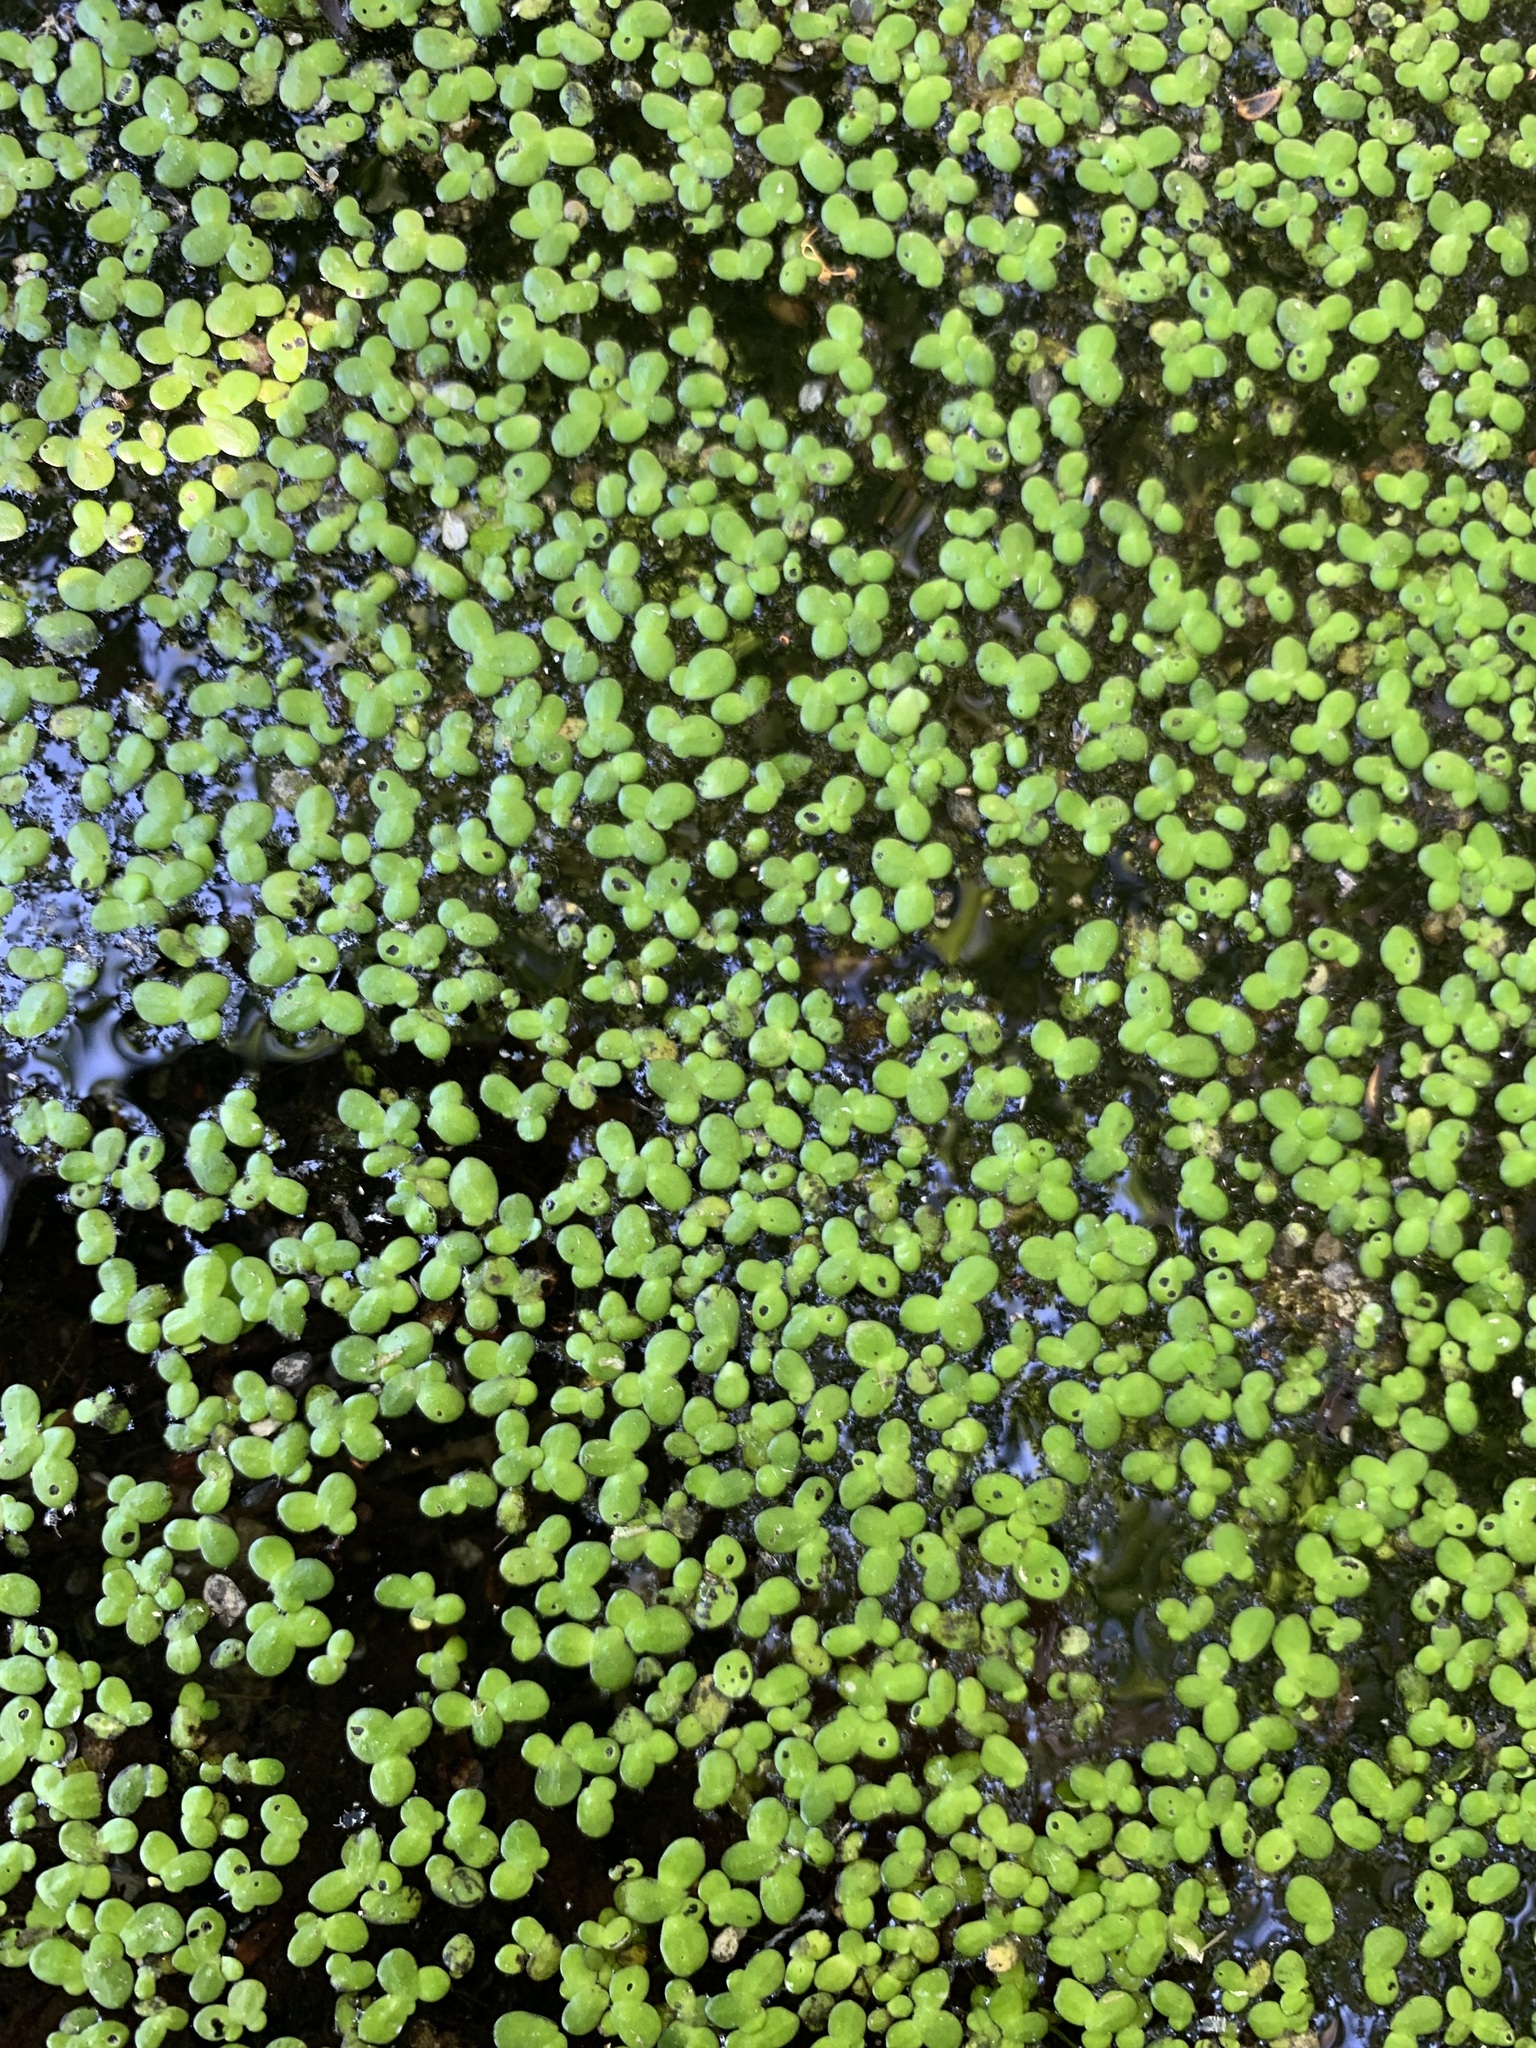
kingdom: Plantae
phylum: Tracheophyta
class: Liliopsida
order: Alismatales
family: Araceae
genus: Lemna
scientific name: Lemna turionifera
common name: Perennial duckweed
